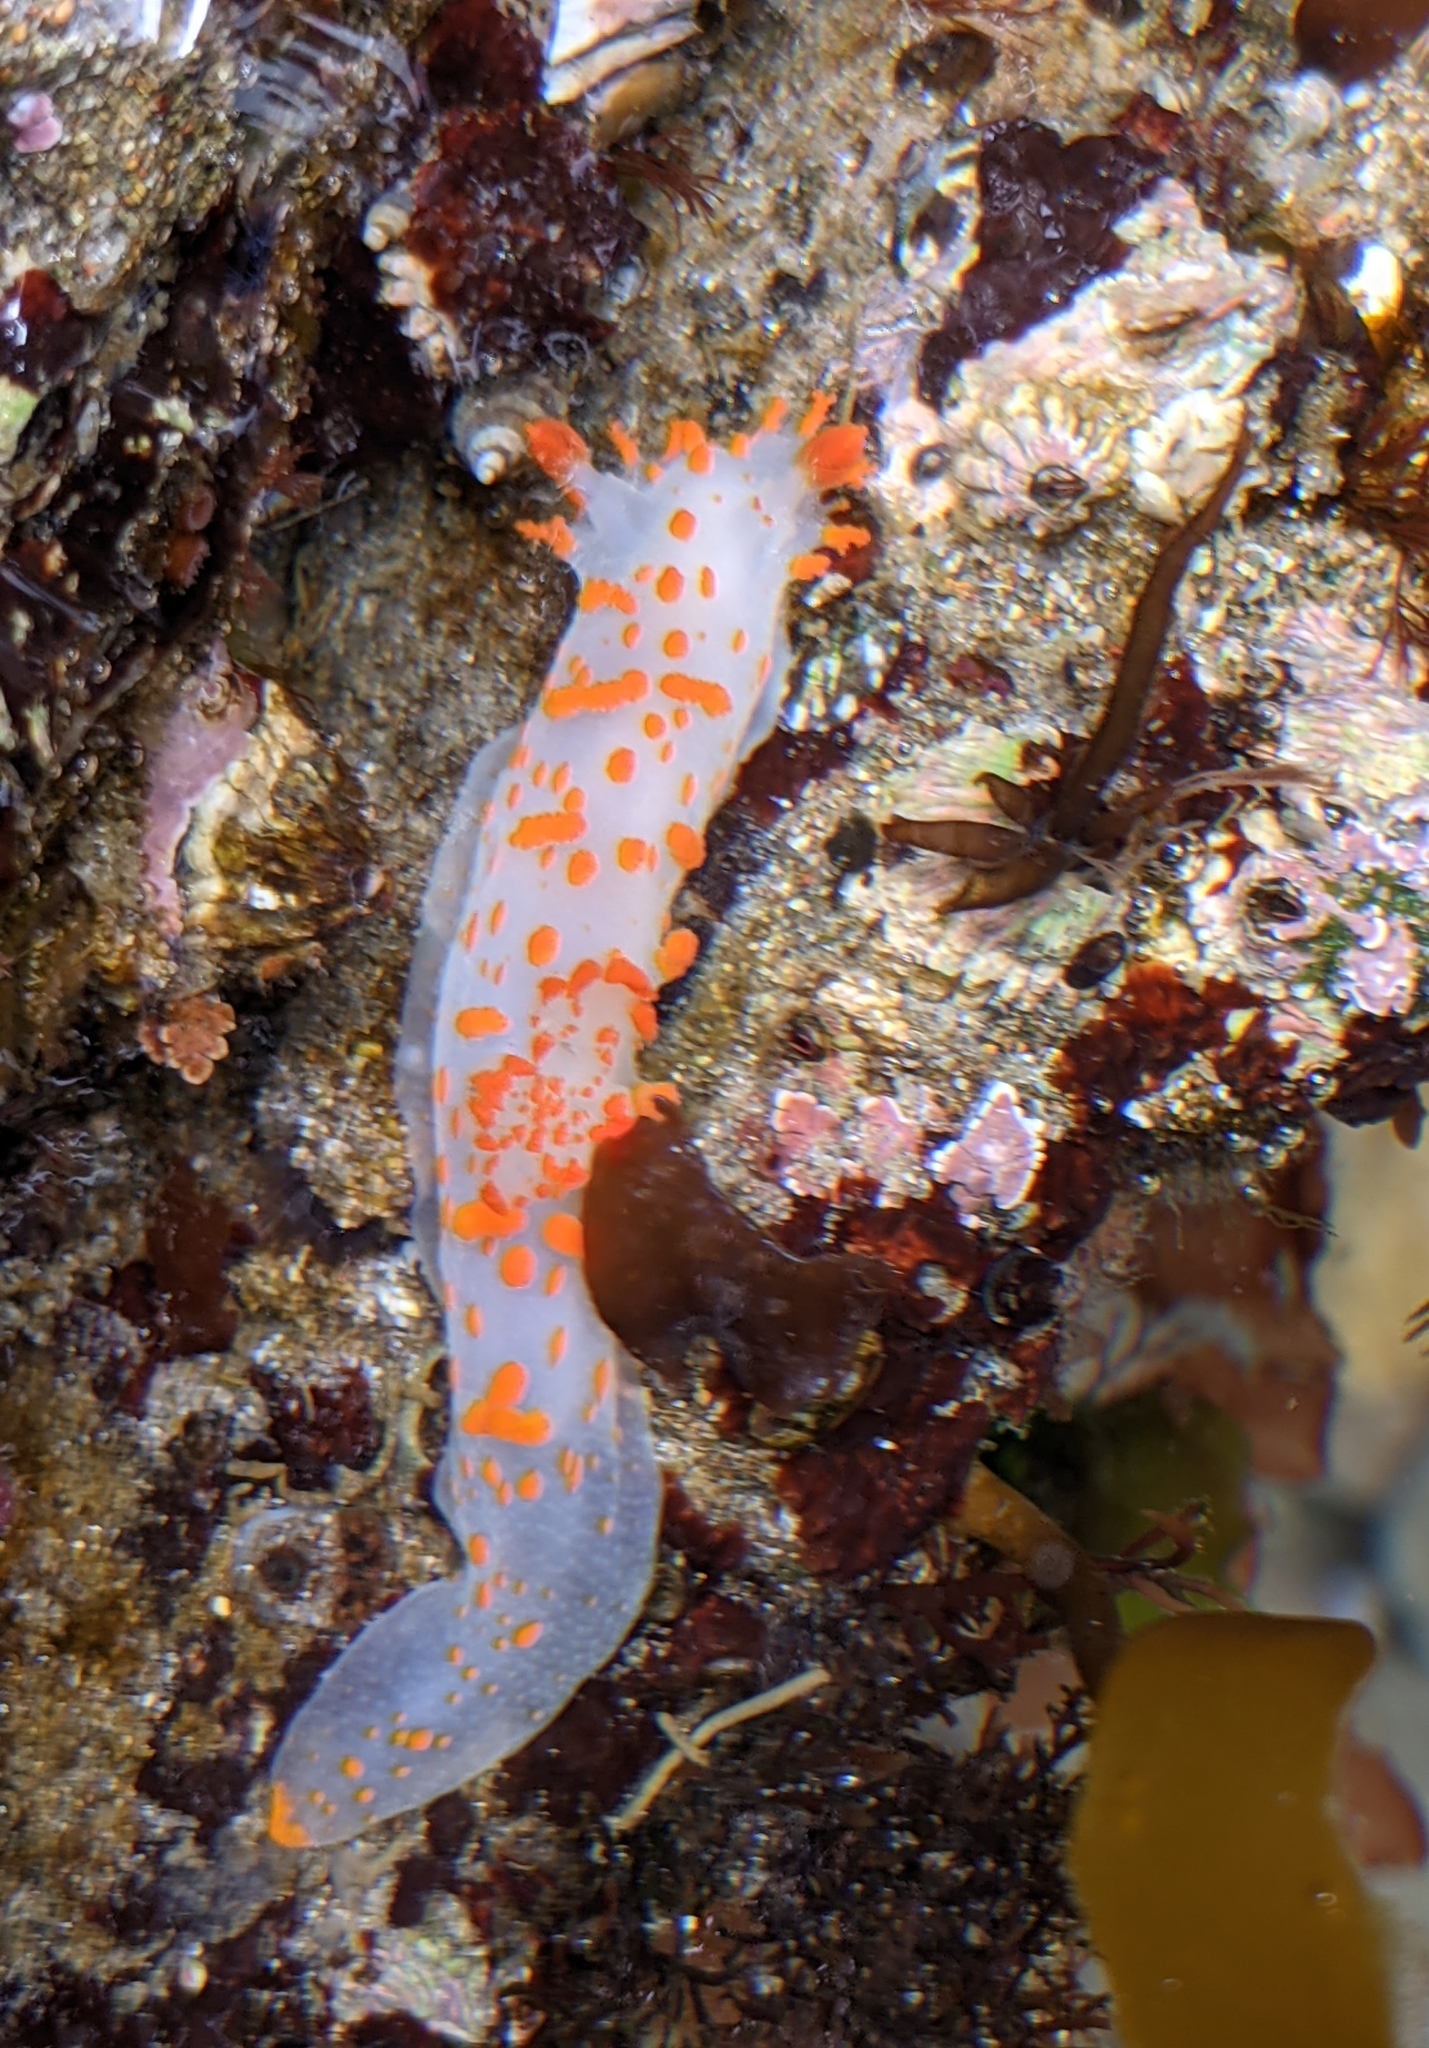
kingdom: Animalia
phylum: Mollusca
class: Gastropoda
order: Nudibranchia
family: Polyceridae
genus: Triopha
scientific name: Triopha catalinae
